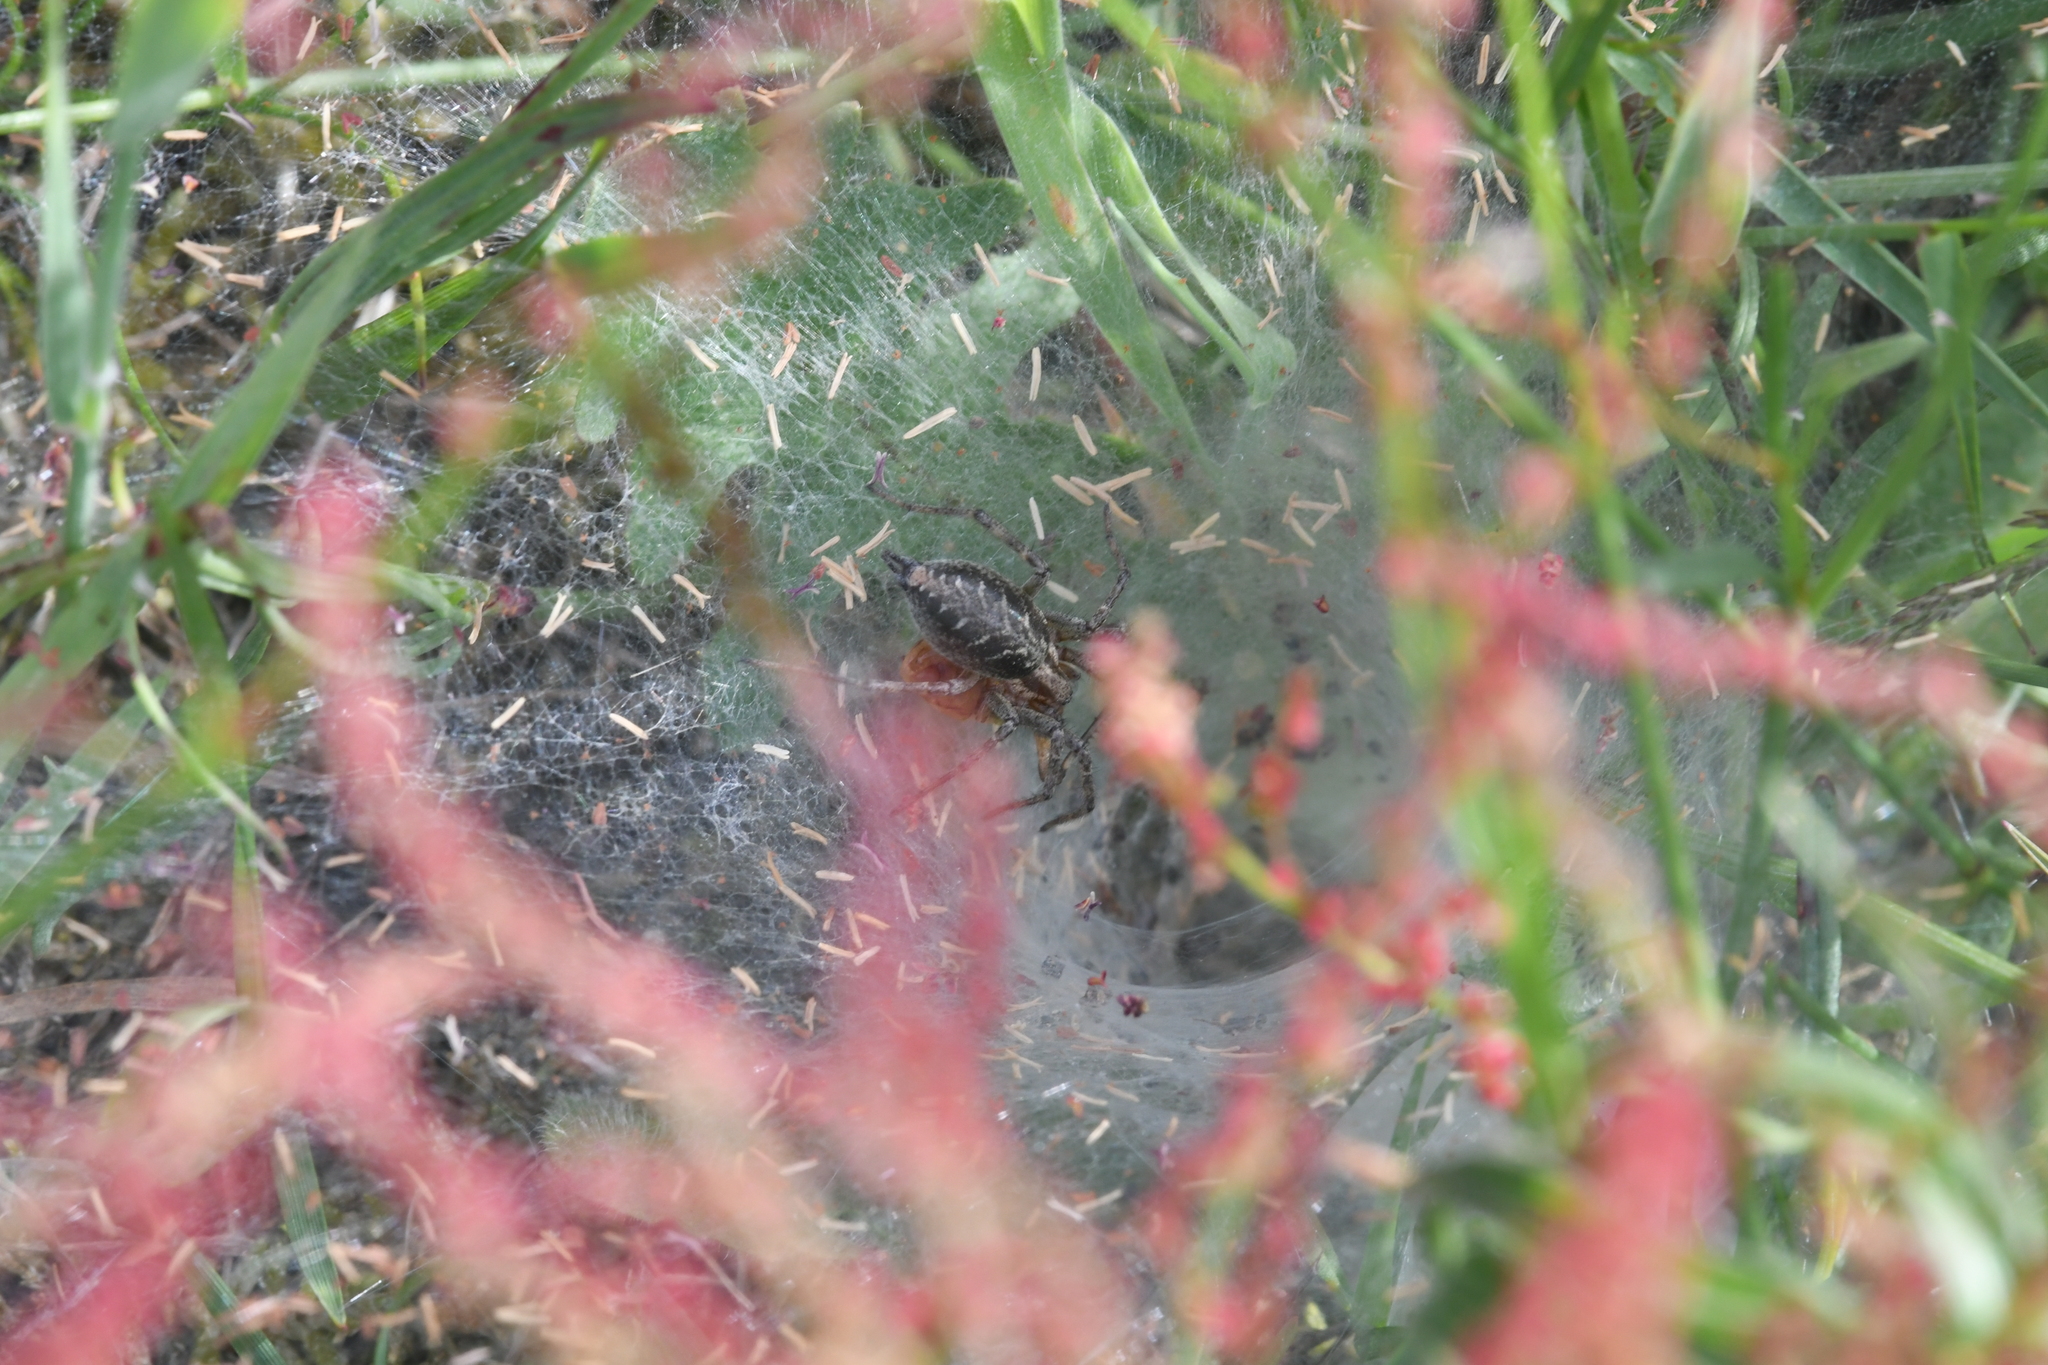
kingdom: Animalia
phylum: Arthropoda
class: Arachnida
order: Araneae
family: Agelenidae
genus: Agelena
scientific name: Agelena labyrinthica
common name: Labyrinth spider
